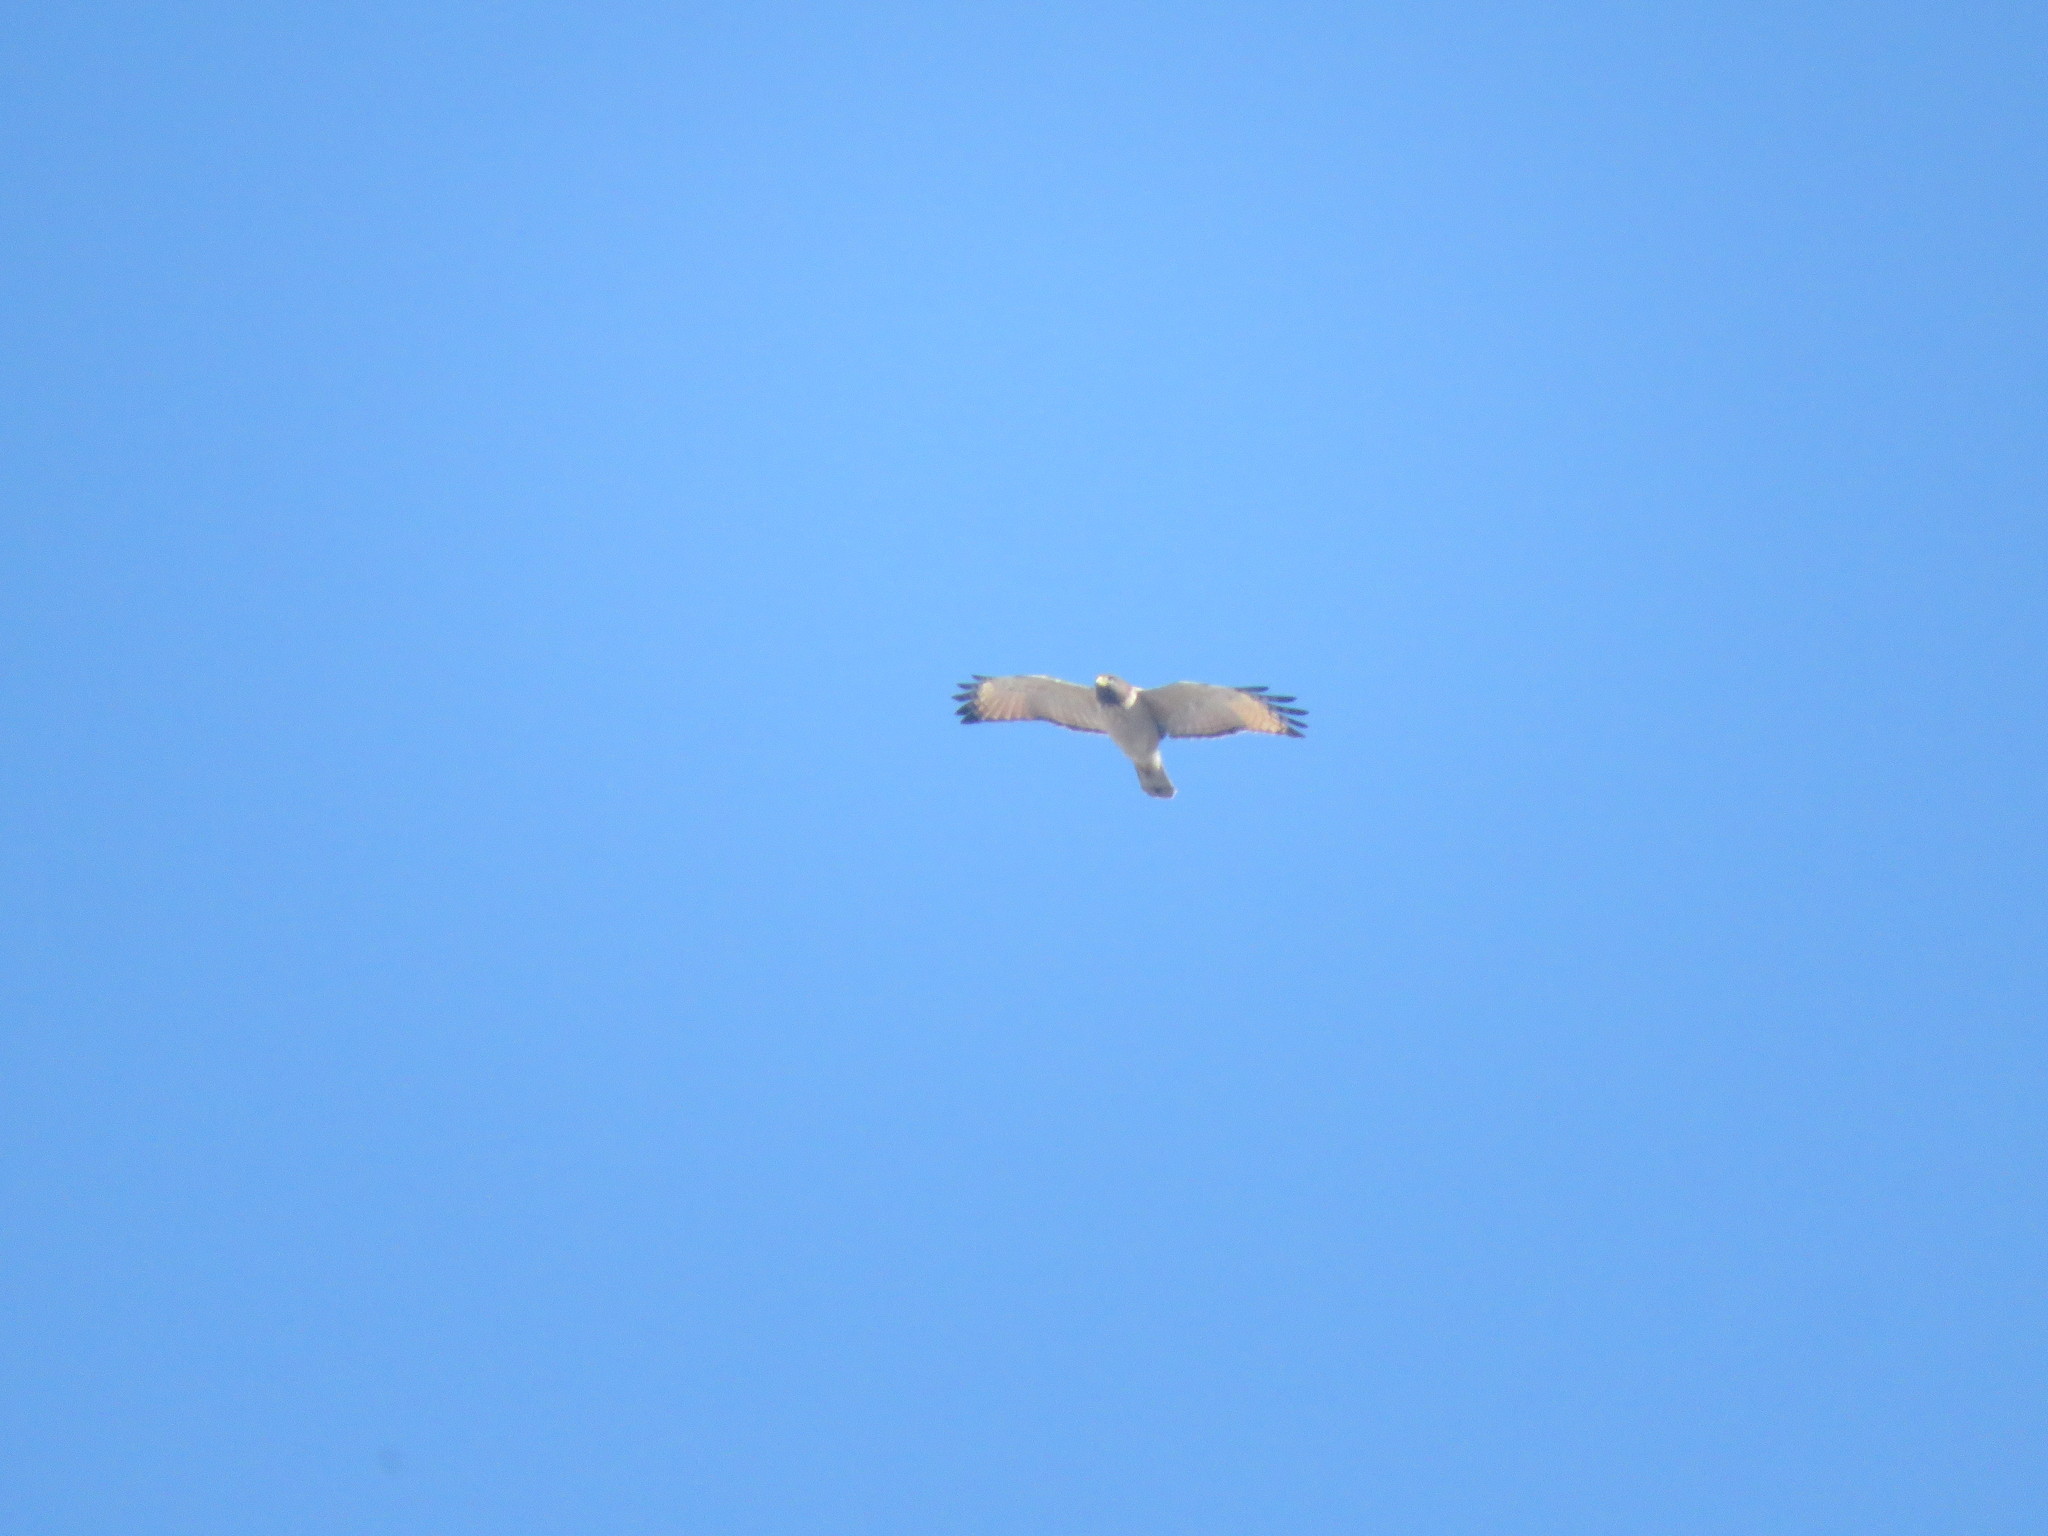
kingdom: Animalia
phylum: Chordata
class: Aves
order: Accipitriformes
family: Accipitridae
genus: Rupornis
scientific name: Rupornis magnirostris
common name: Roadside hawk
